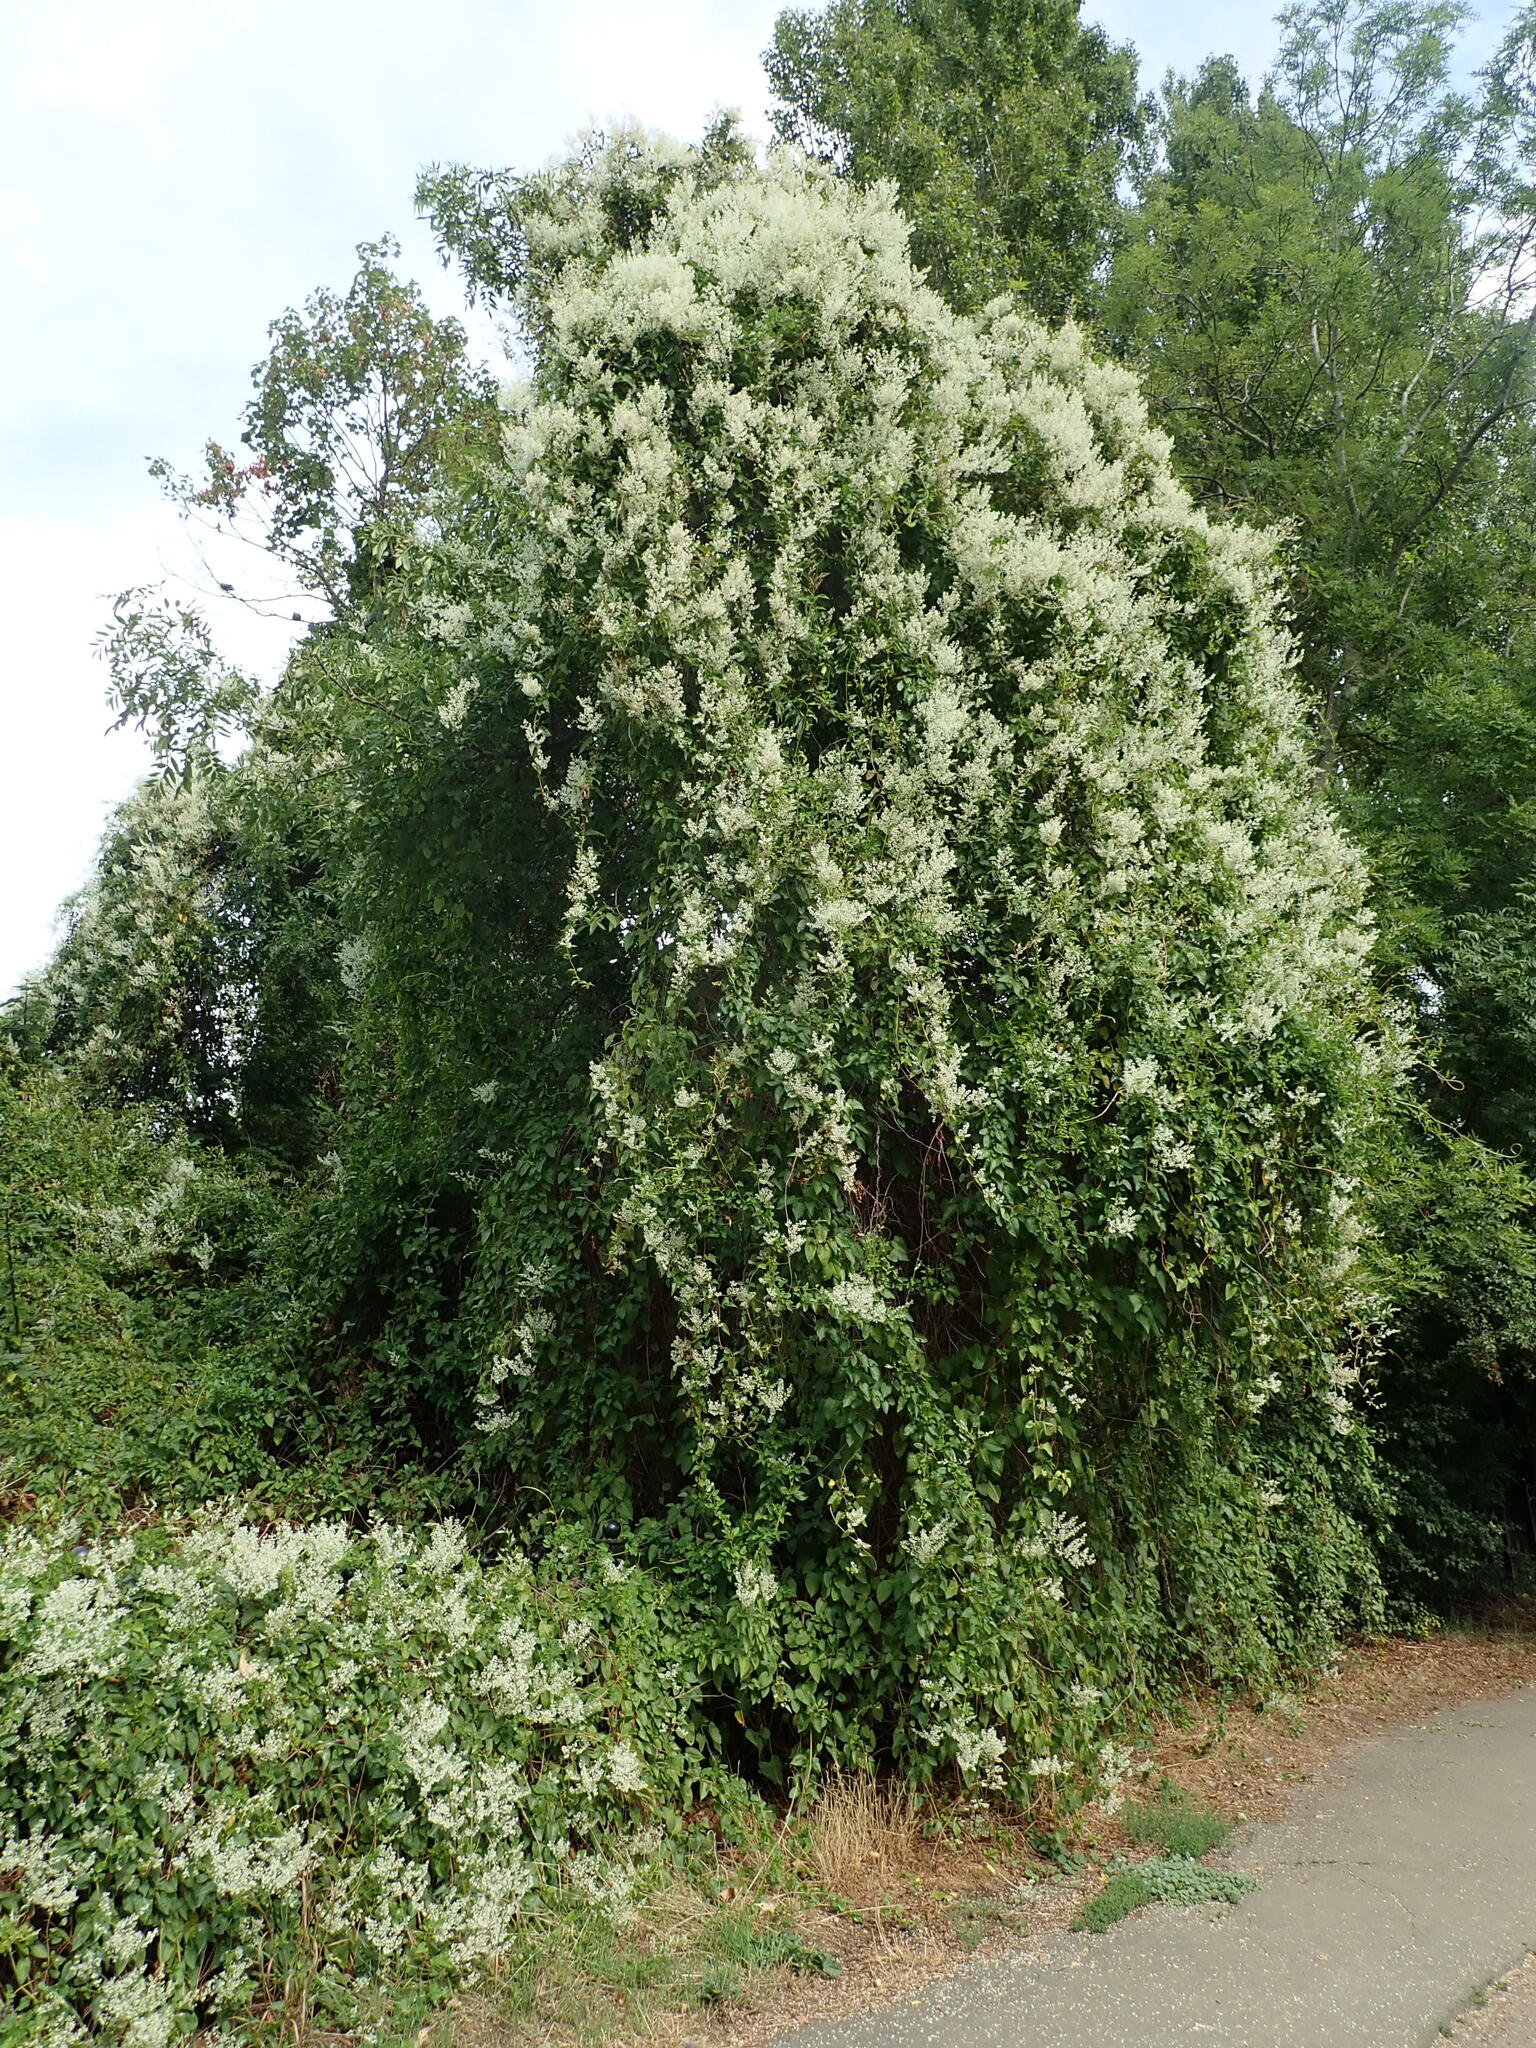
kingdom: Plantae
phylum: Tracheophyta
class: Magnoliopsida
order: Caryophyllales
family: Polygonaceae
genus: Fallopia
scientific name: Fallopia baldschuanica
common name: Russian-vine
